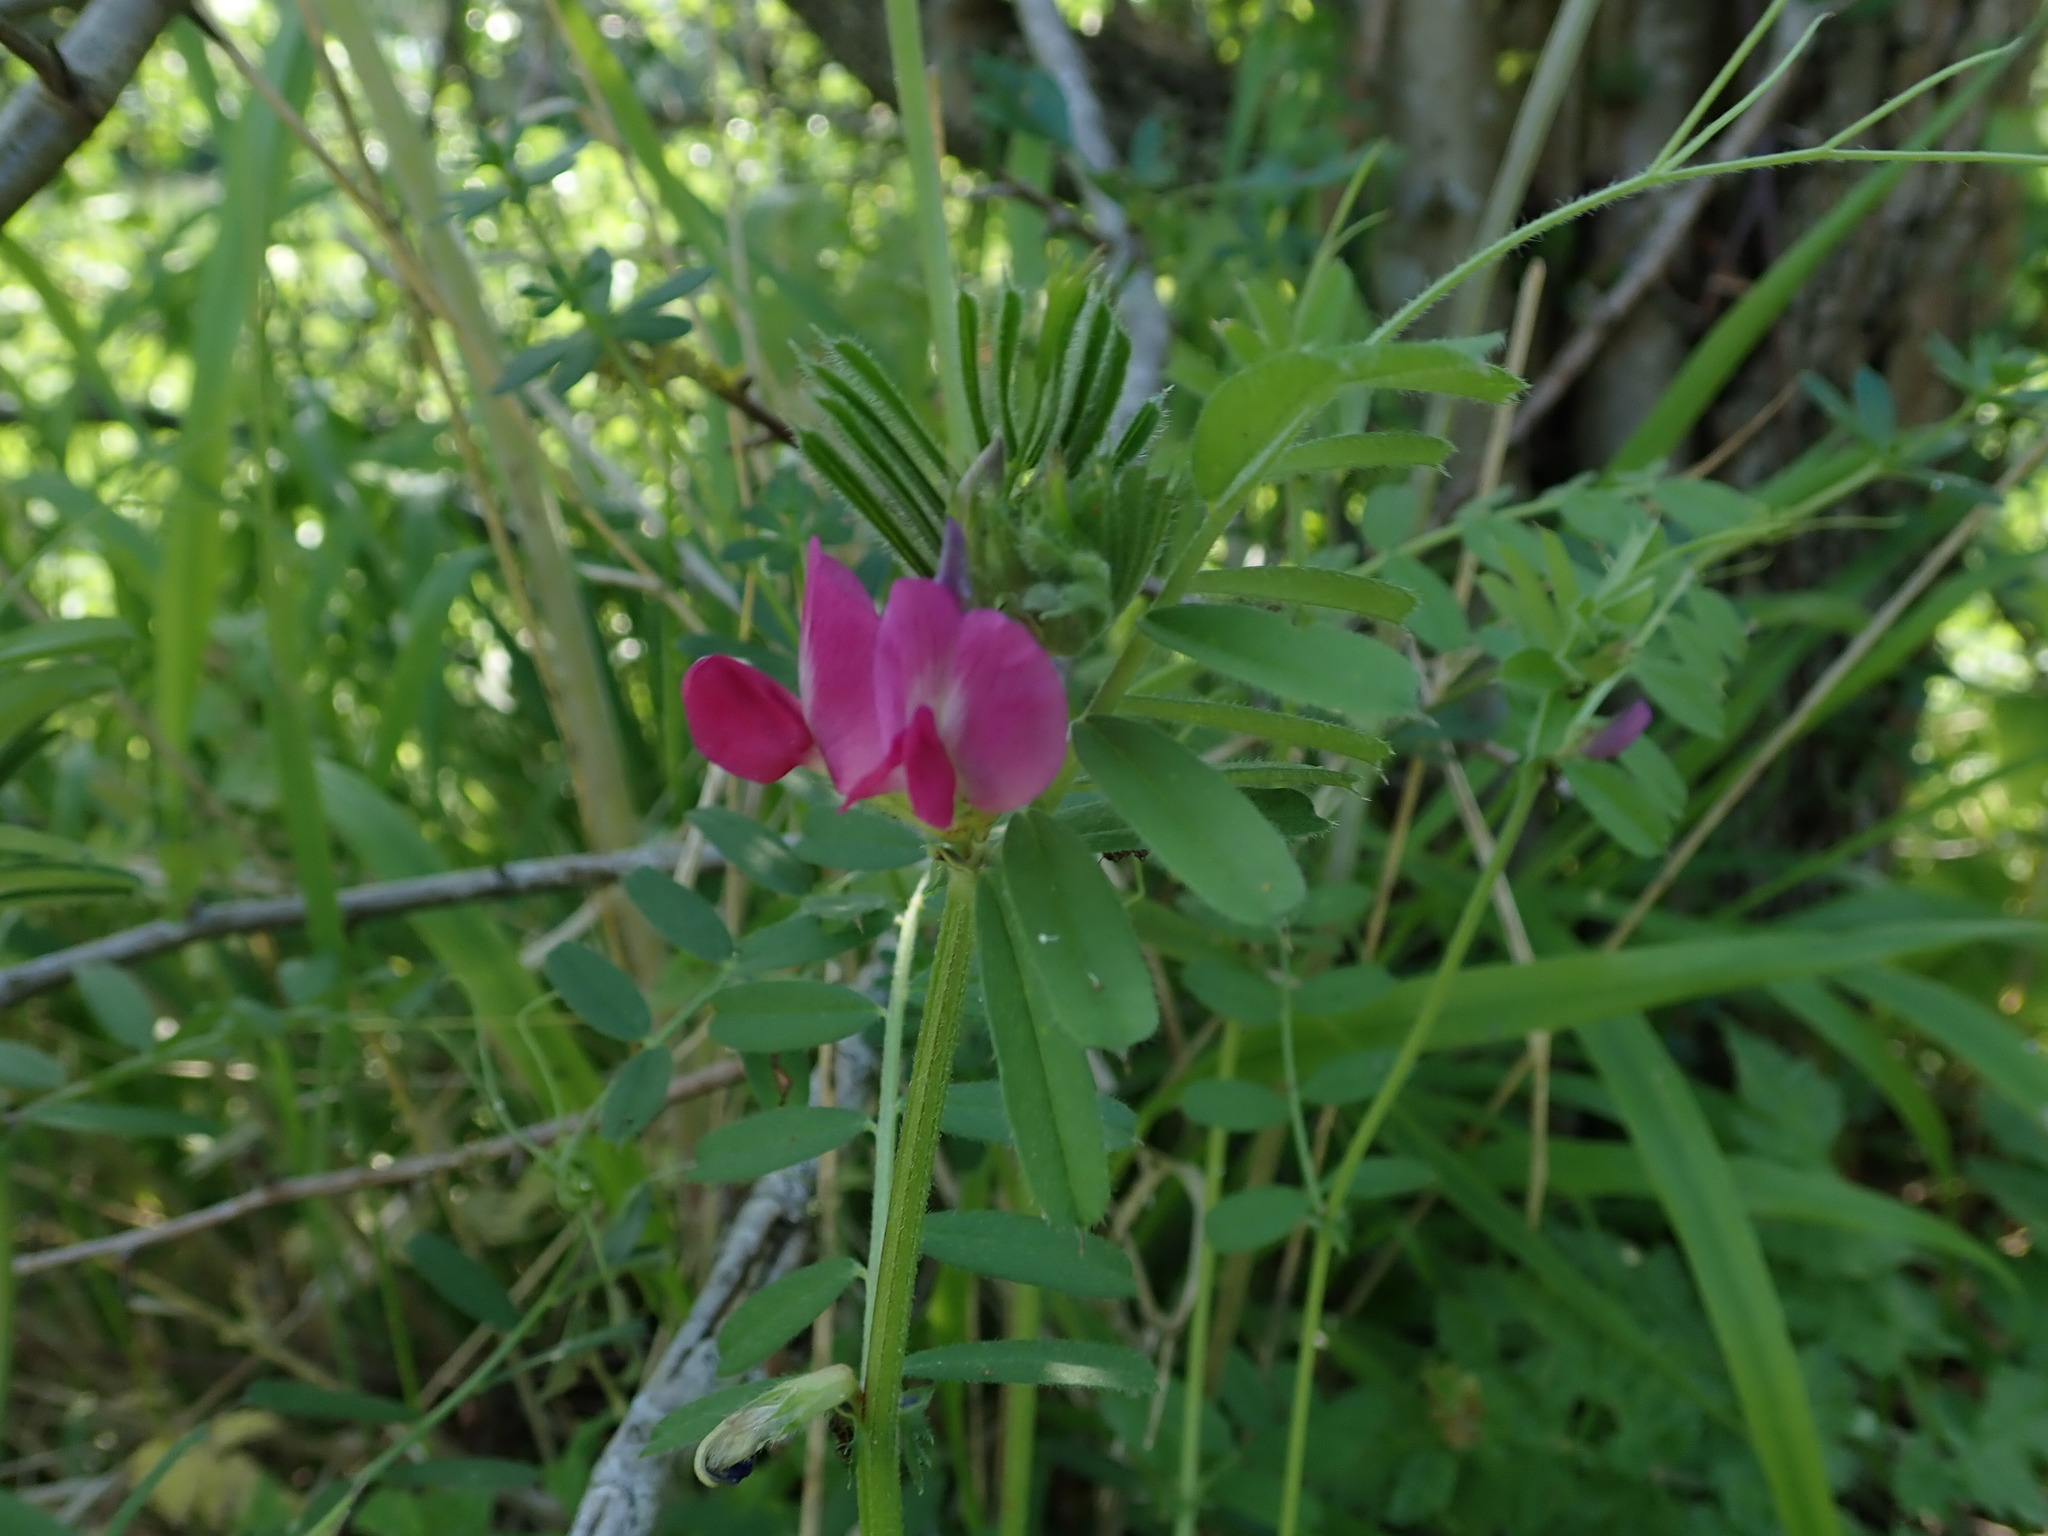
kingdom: Plantae
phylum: Tracheophyta
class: Magnoliopsida
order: Fabales
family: Fabaceae
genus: Vicia
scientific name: Vicia sativa
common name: Garden vetch
